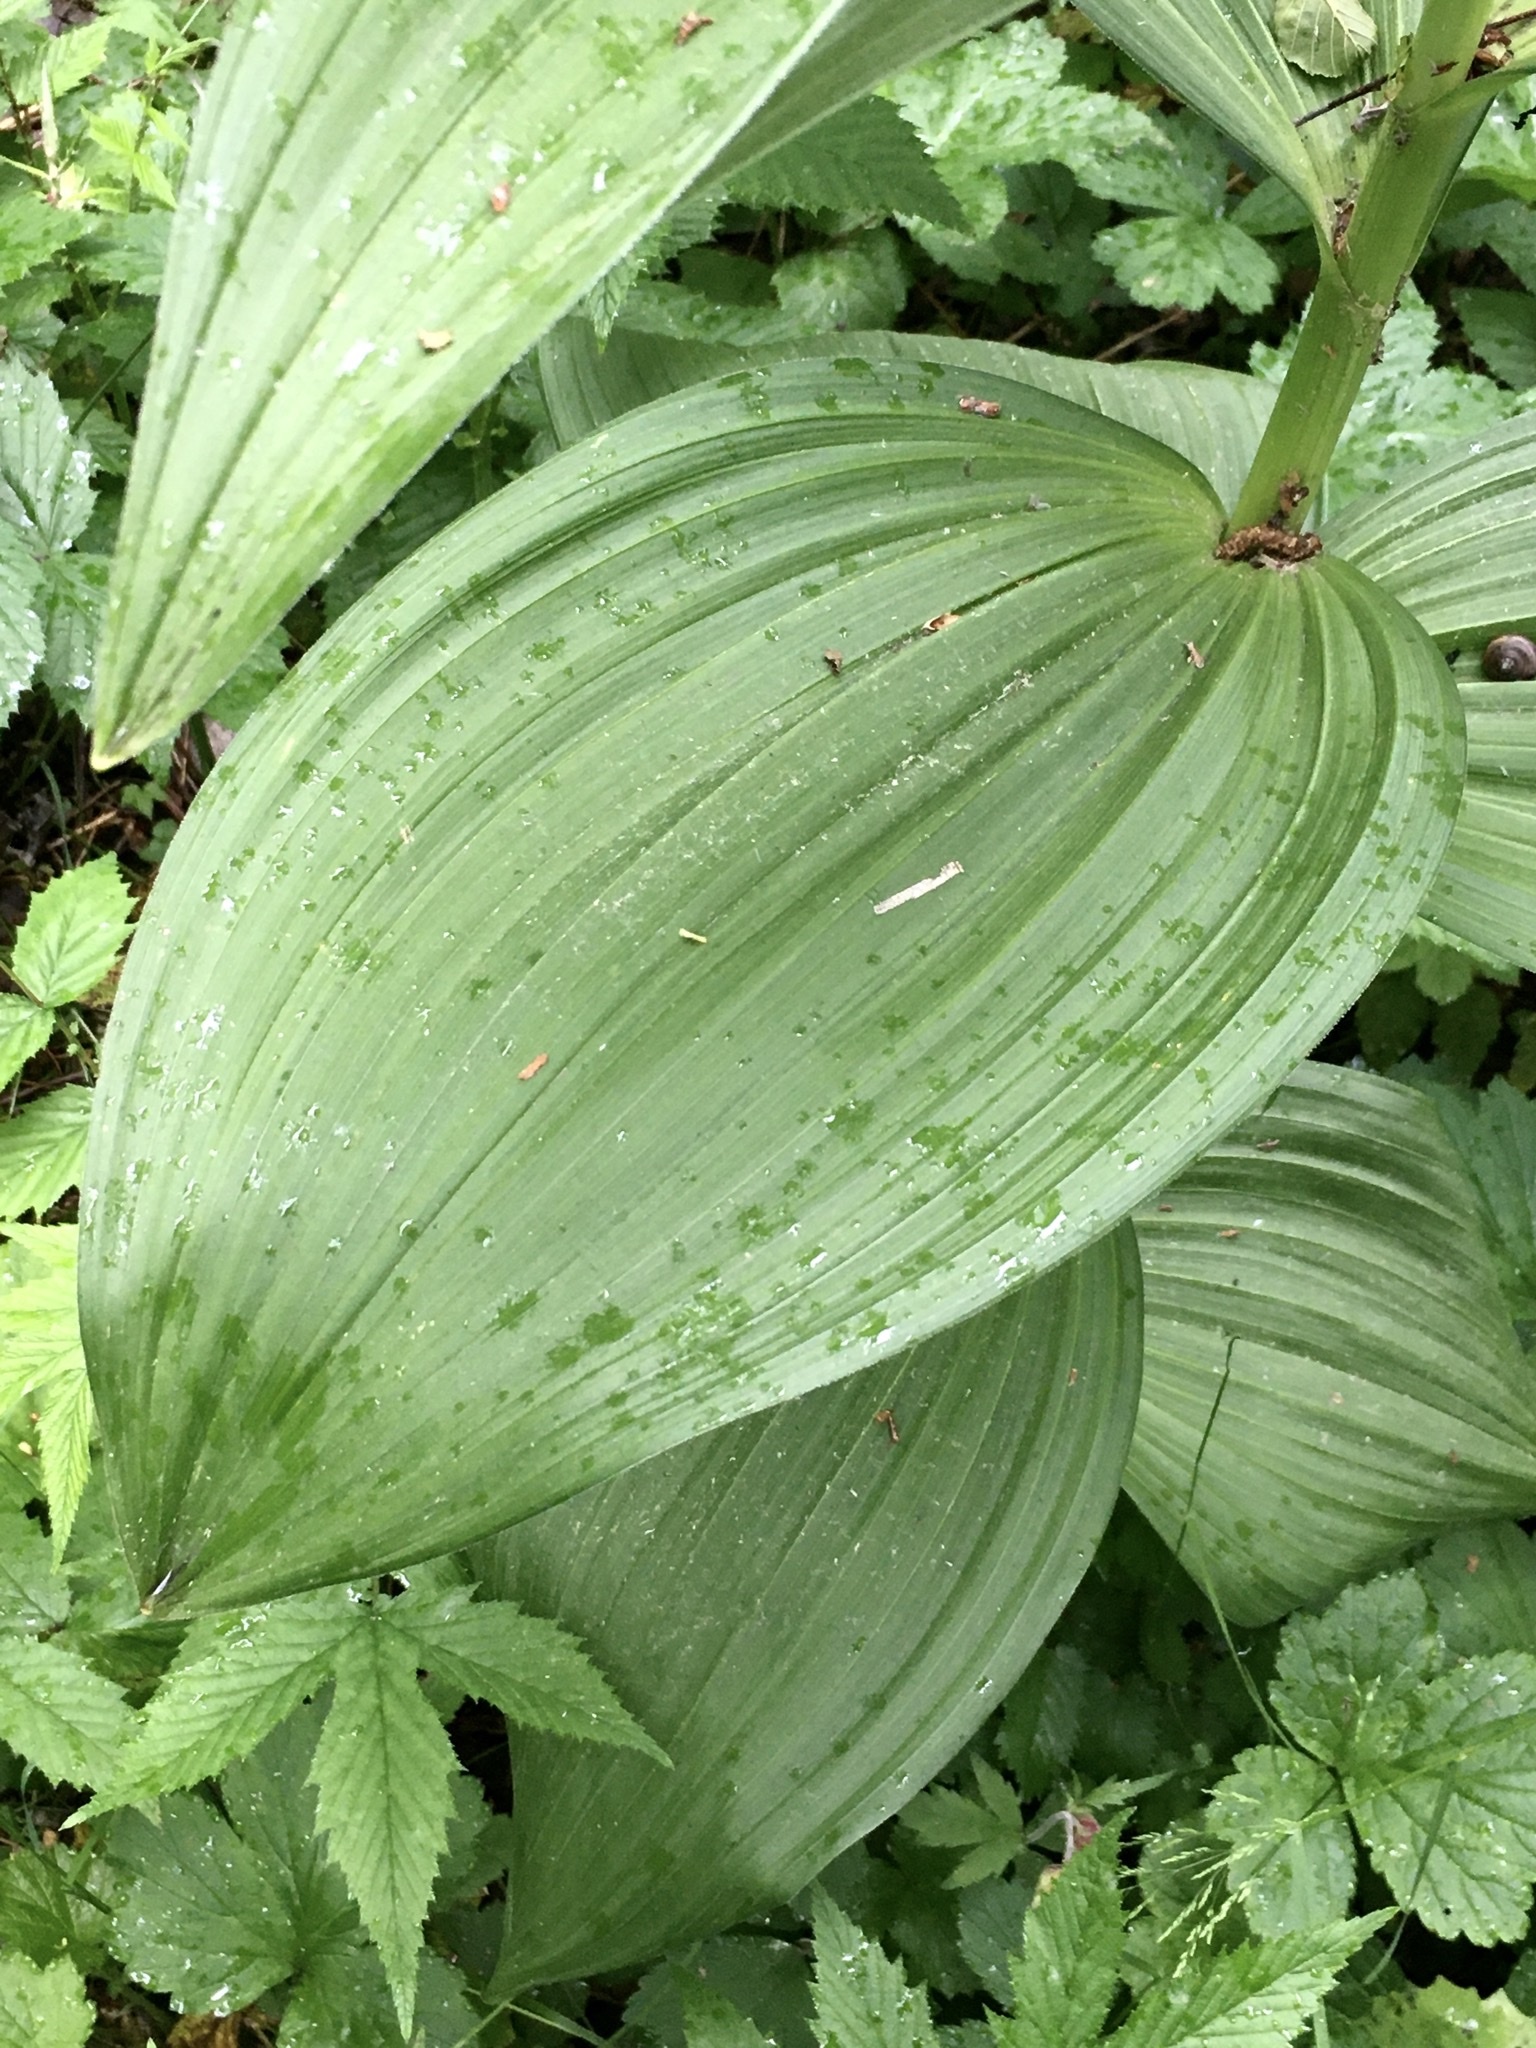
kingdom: Plantae
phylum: Tracheophyta
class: Liliopsida
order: Liliales
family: Melanthiaceae
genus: Veratrum
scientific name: Veratrum lobelianum
